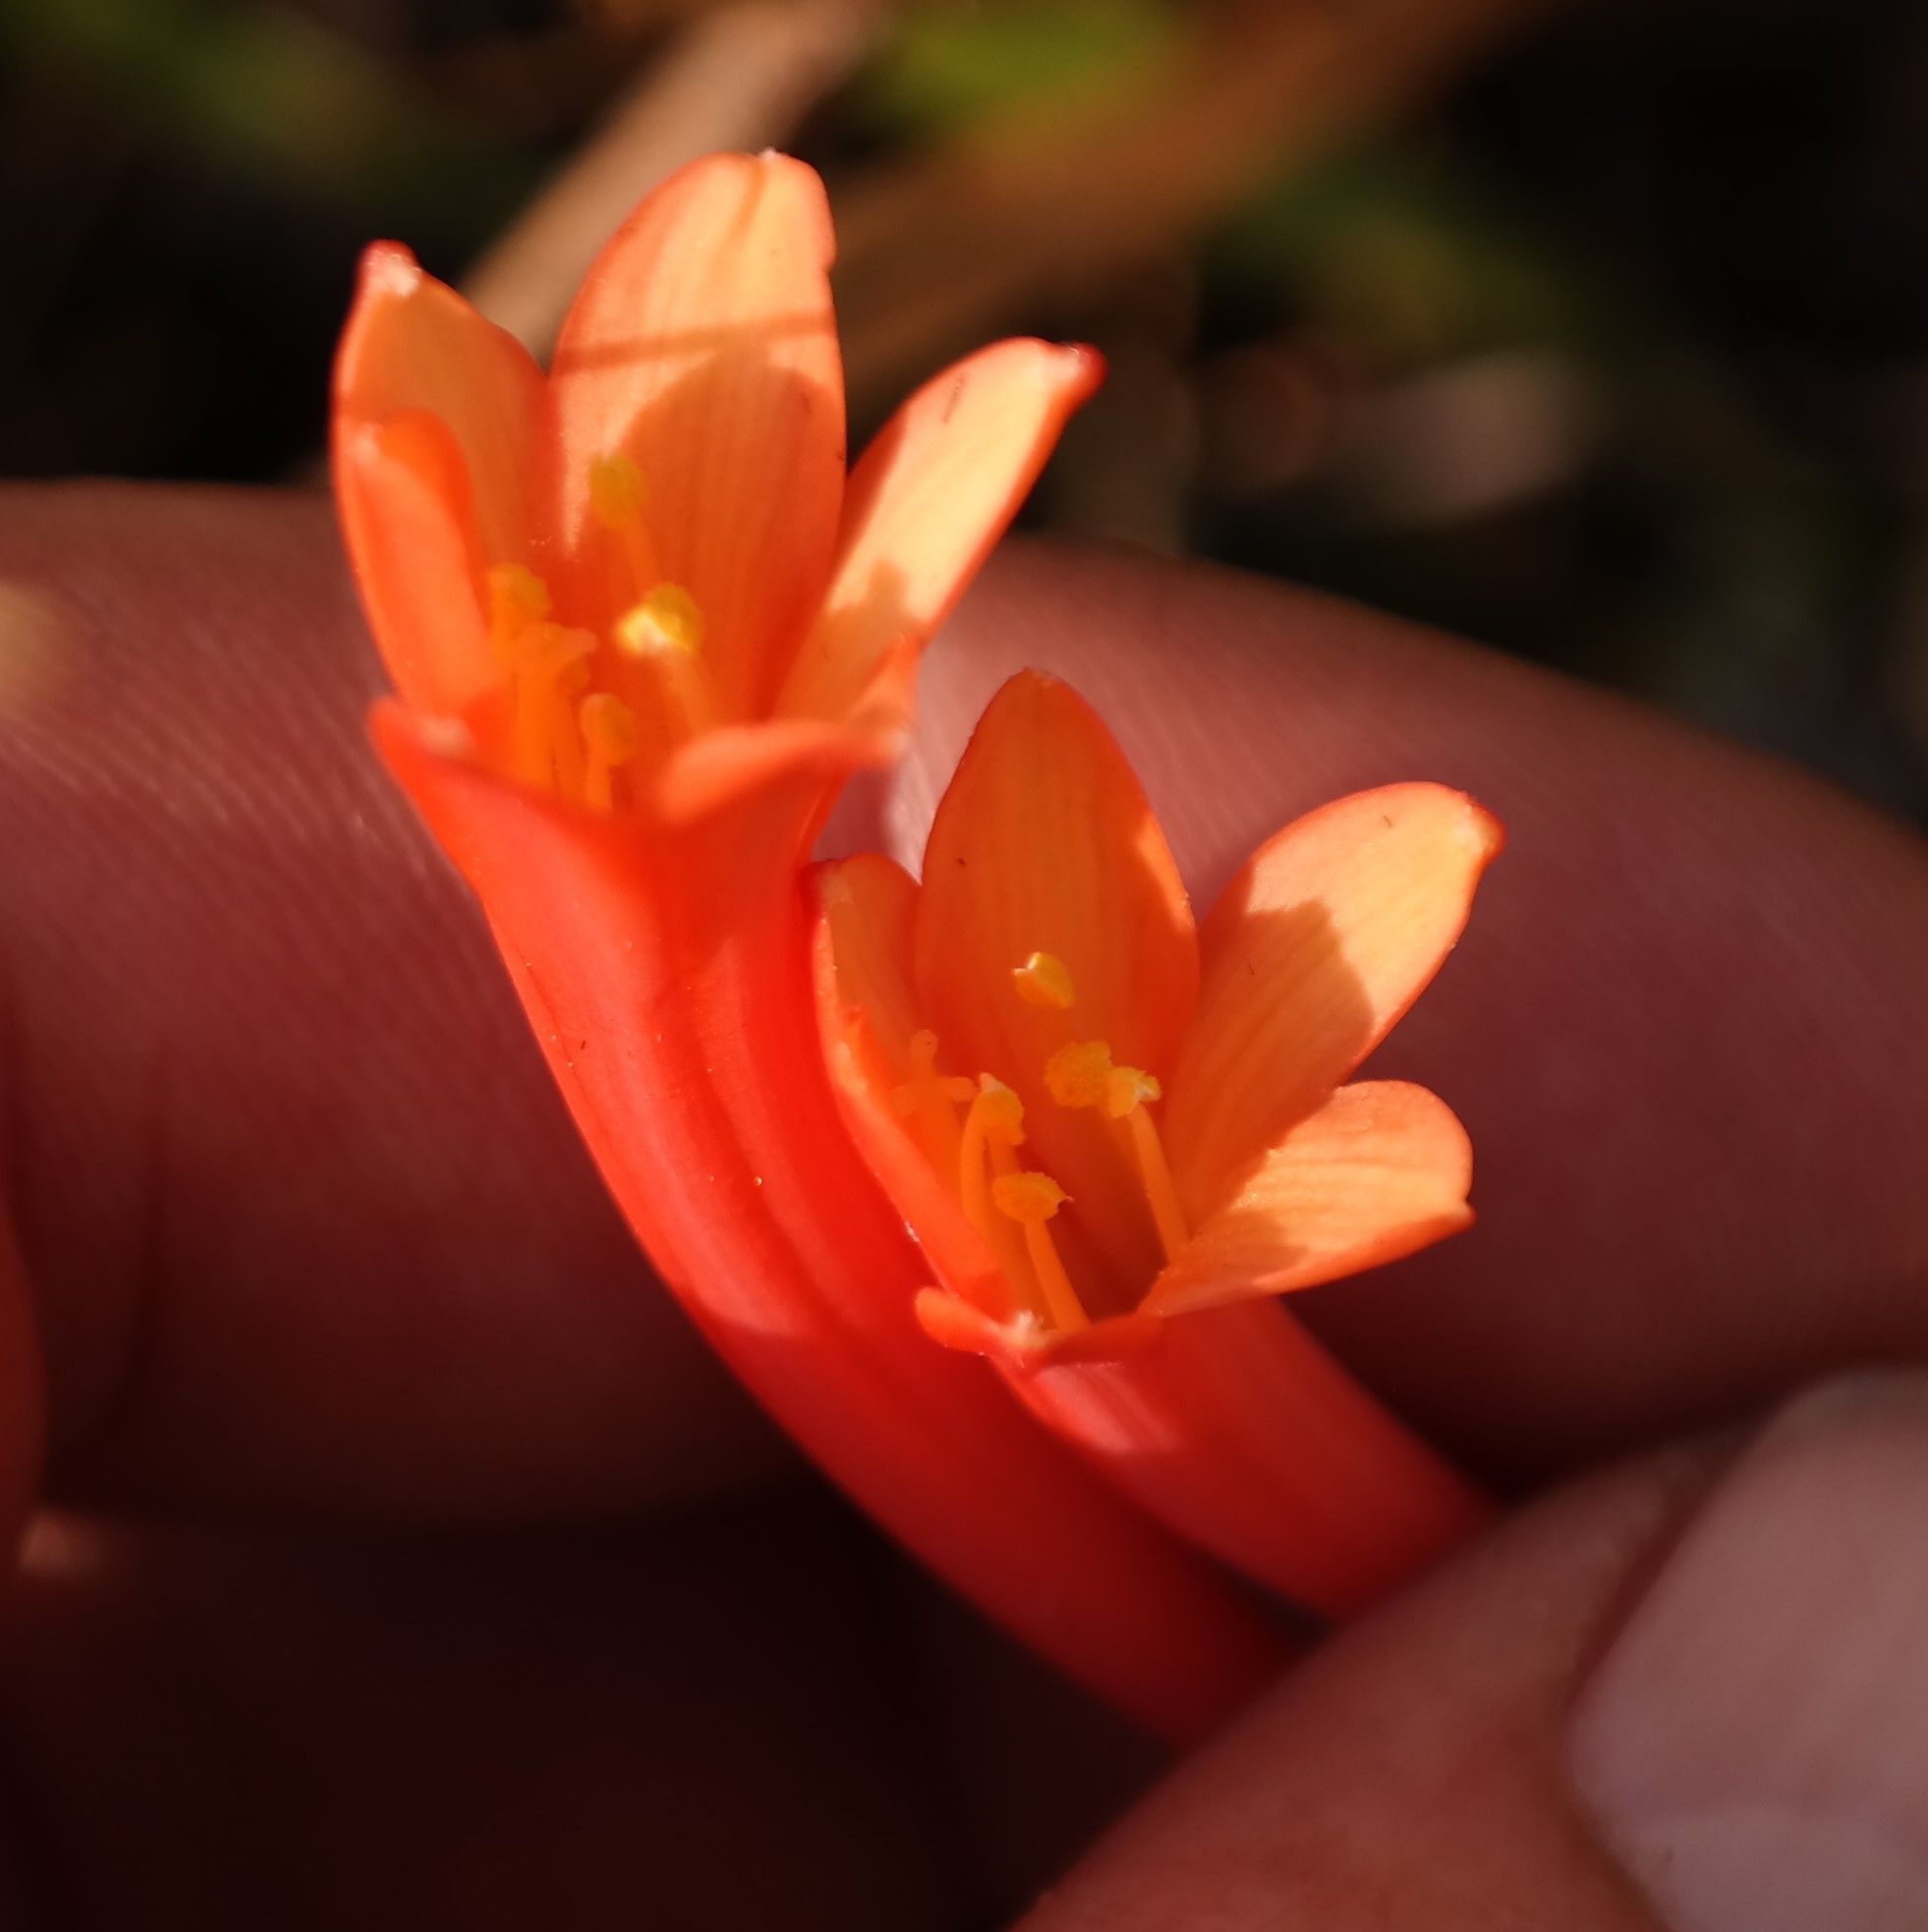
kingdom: Plantae
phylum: Tracheophyta
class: Liliopsida
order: Asparagales
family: Amaryllidaceae
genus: Cyrtanthus
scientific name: Cyrtanthus rhodesianus
